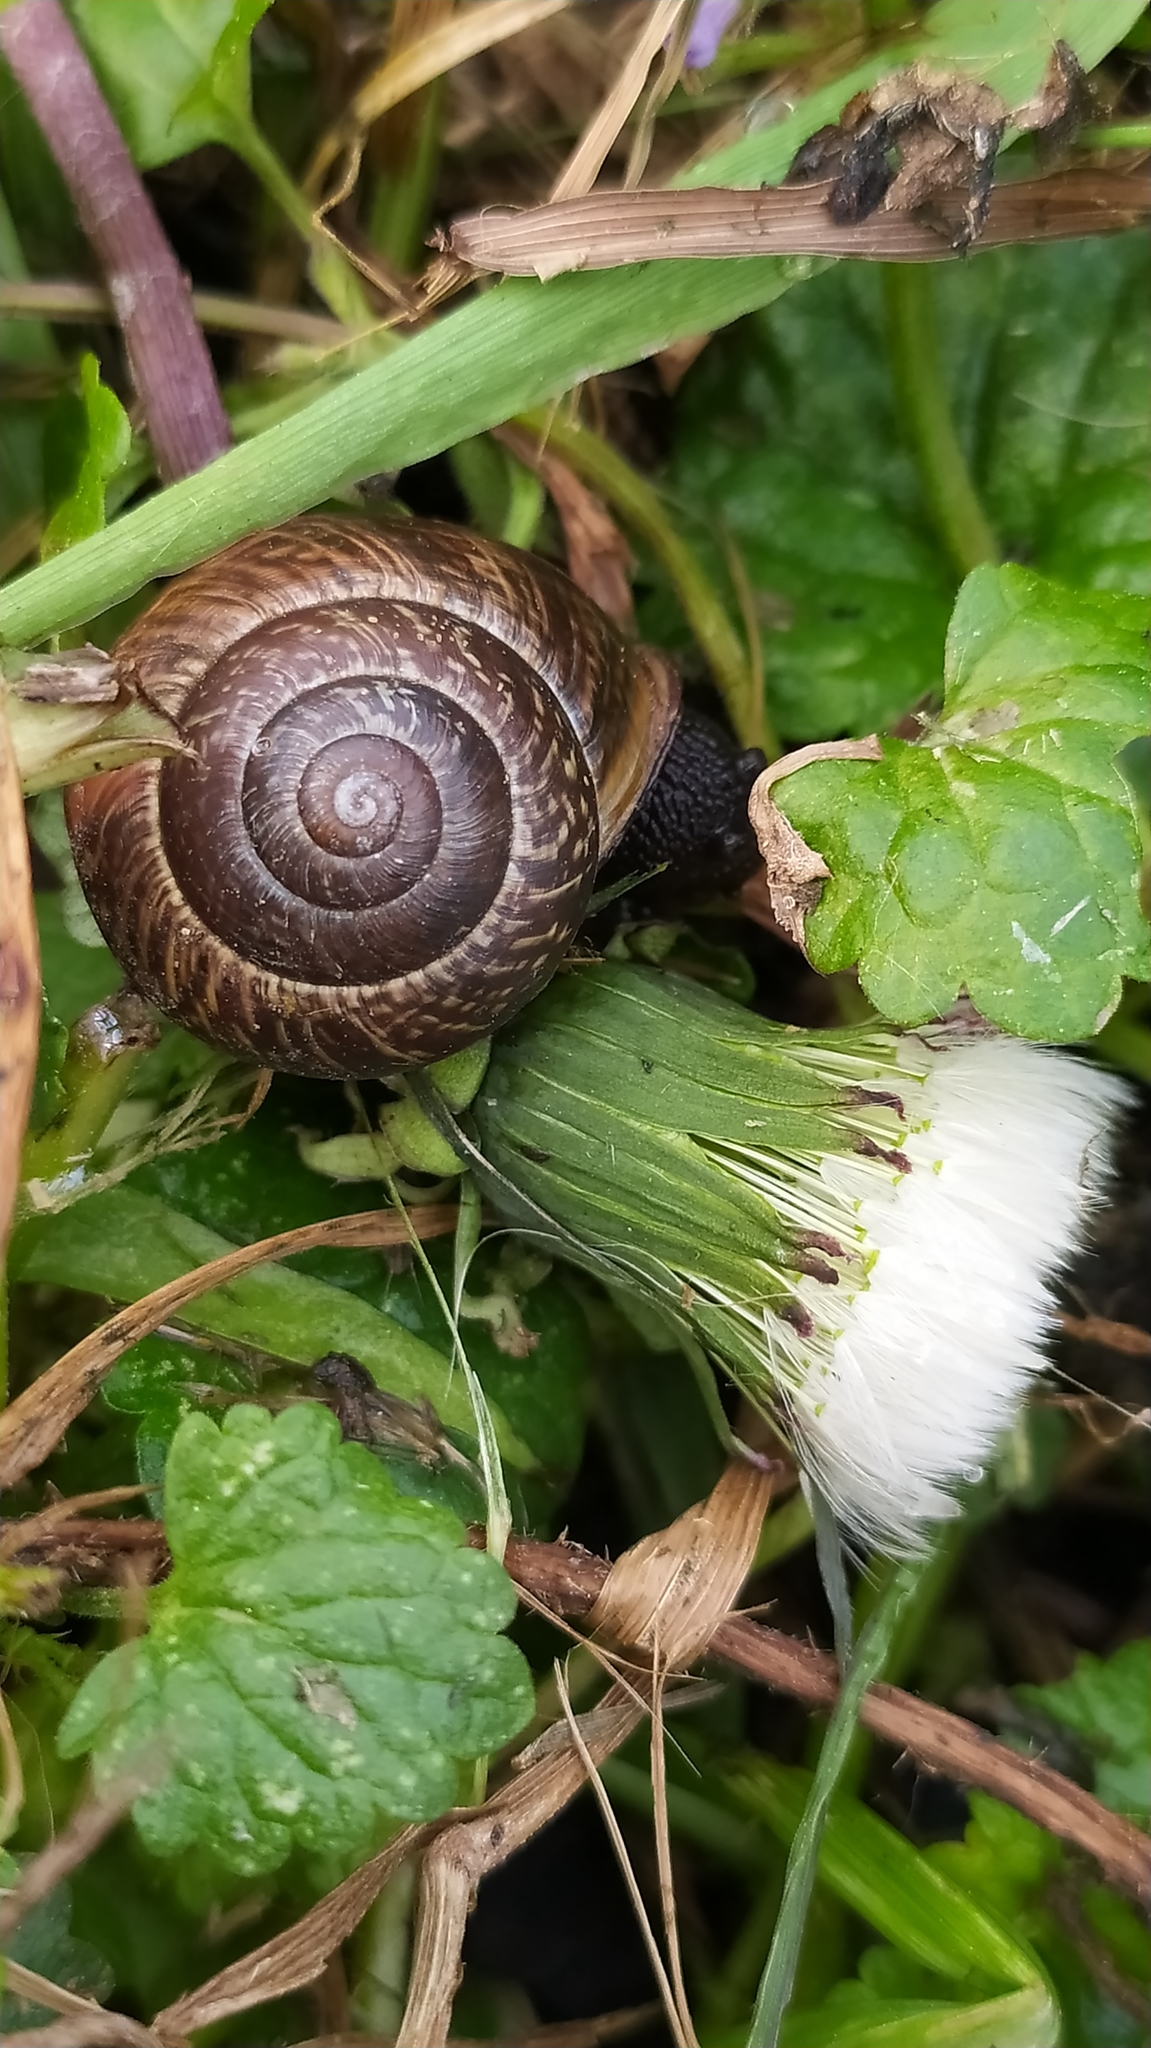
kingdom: Animalia
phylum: Mollusca
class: Gastropoda
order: Stylommatophora
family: Helicidae
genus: Arianta
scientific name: Arianta arbustorum
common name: Copse snail
